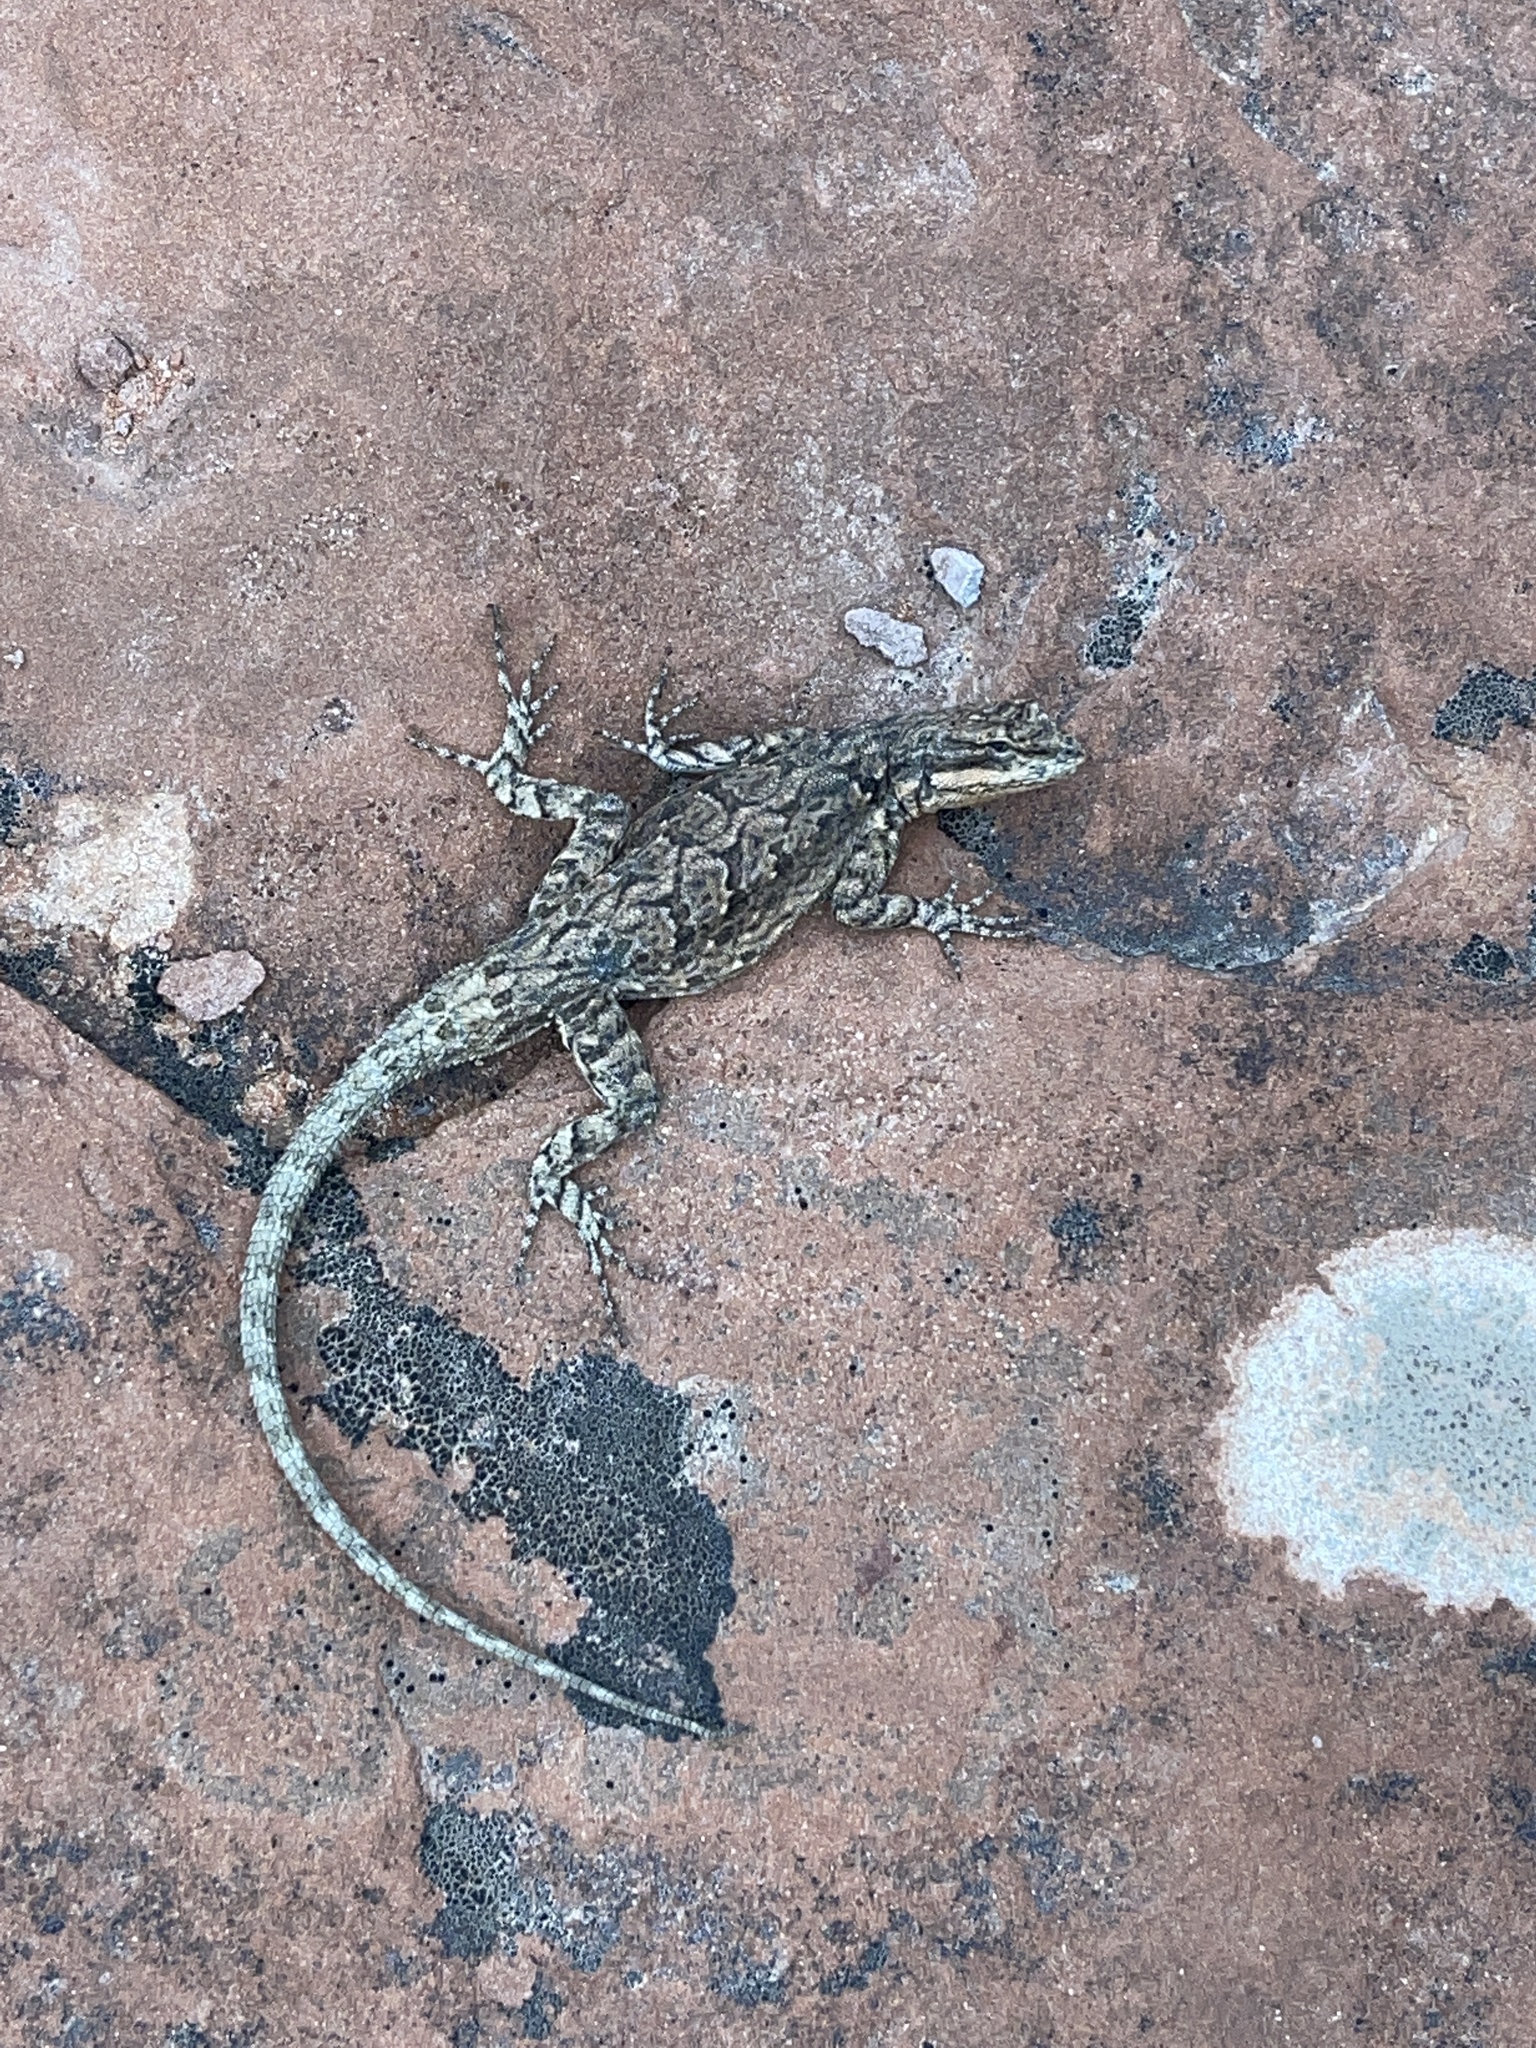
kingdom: Animalia
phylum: Chordata
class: Squamata
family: Phrynosomatidae
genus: Urosaurus
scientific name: Urosaurus ornatus
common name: Ornate tree lizard
